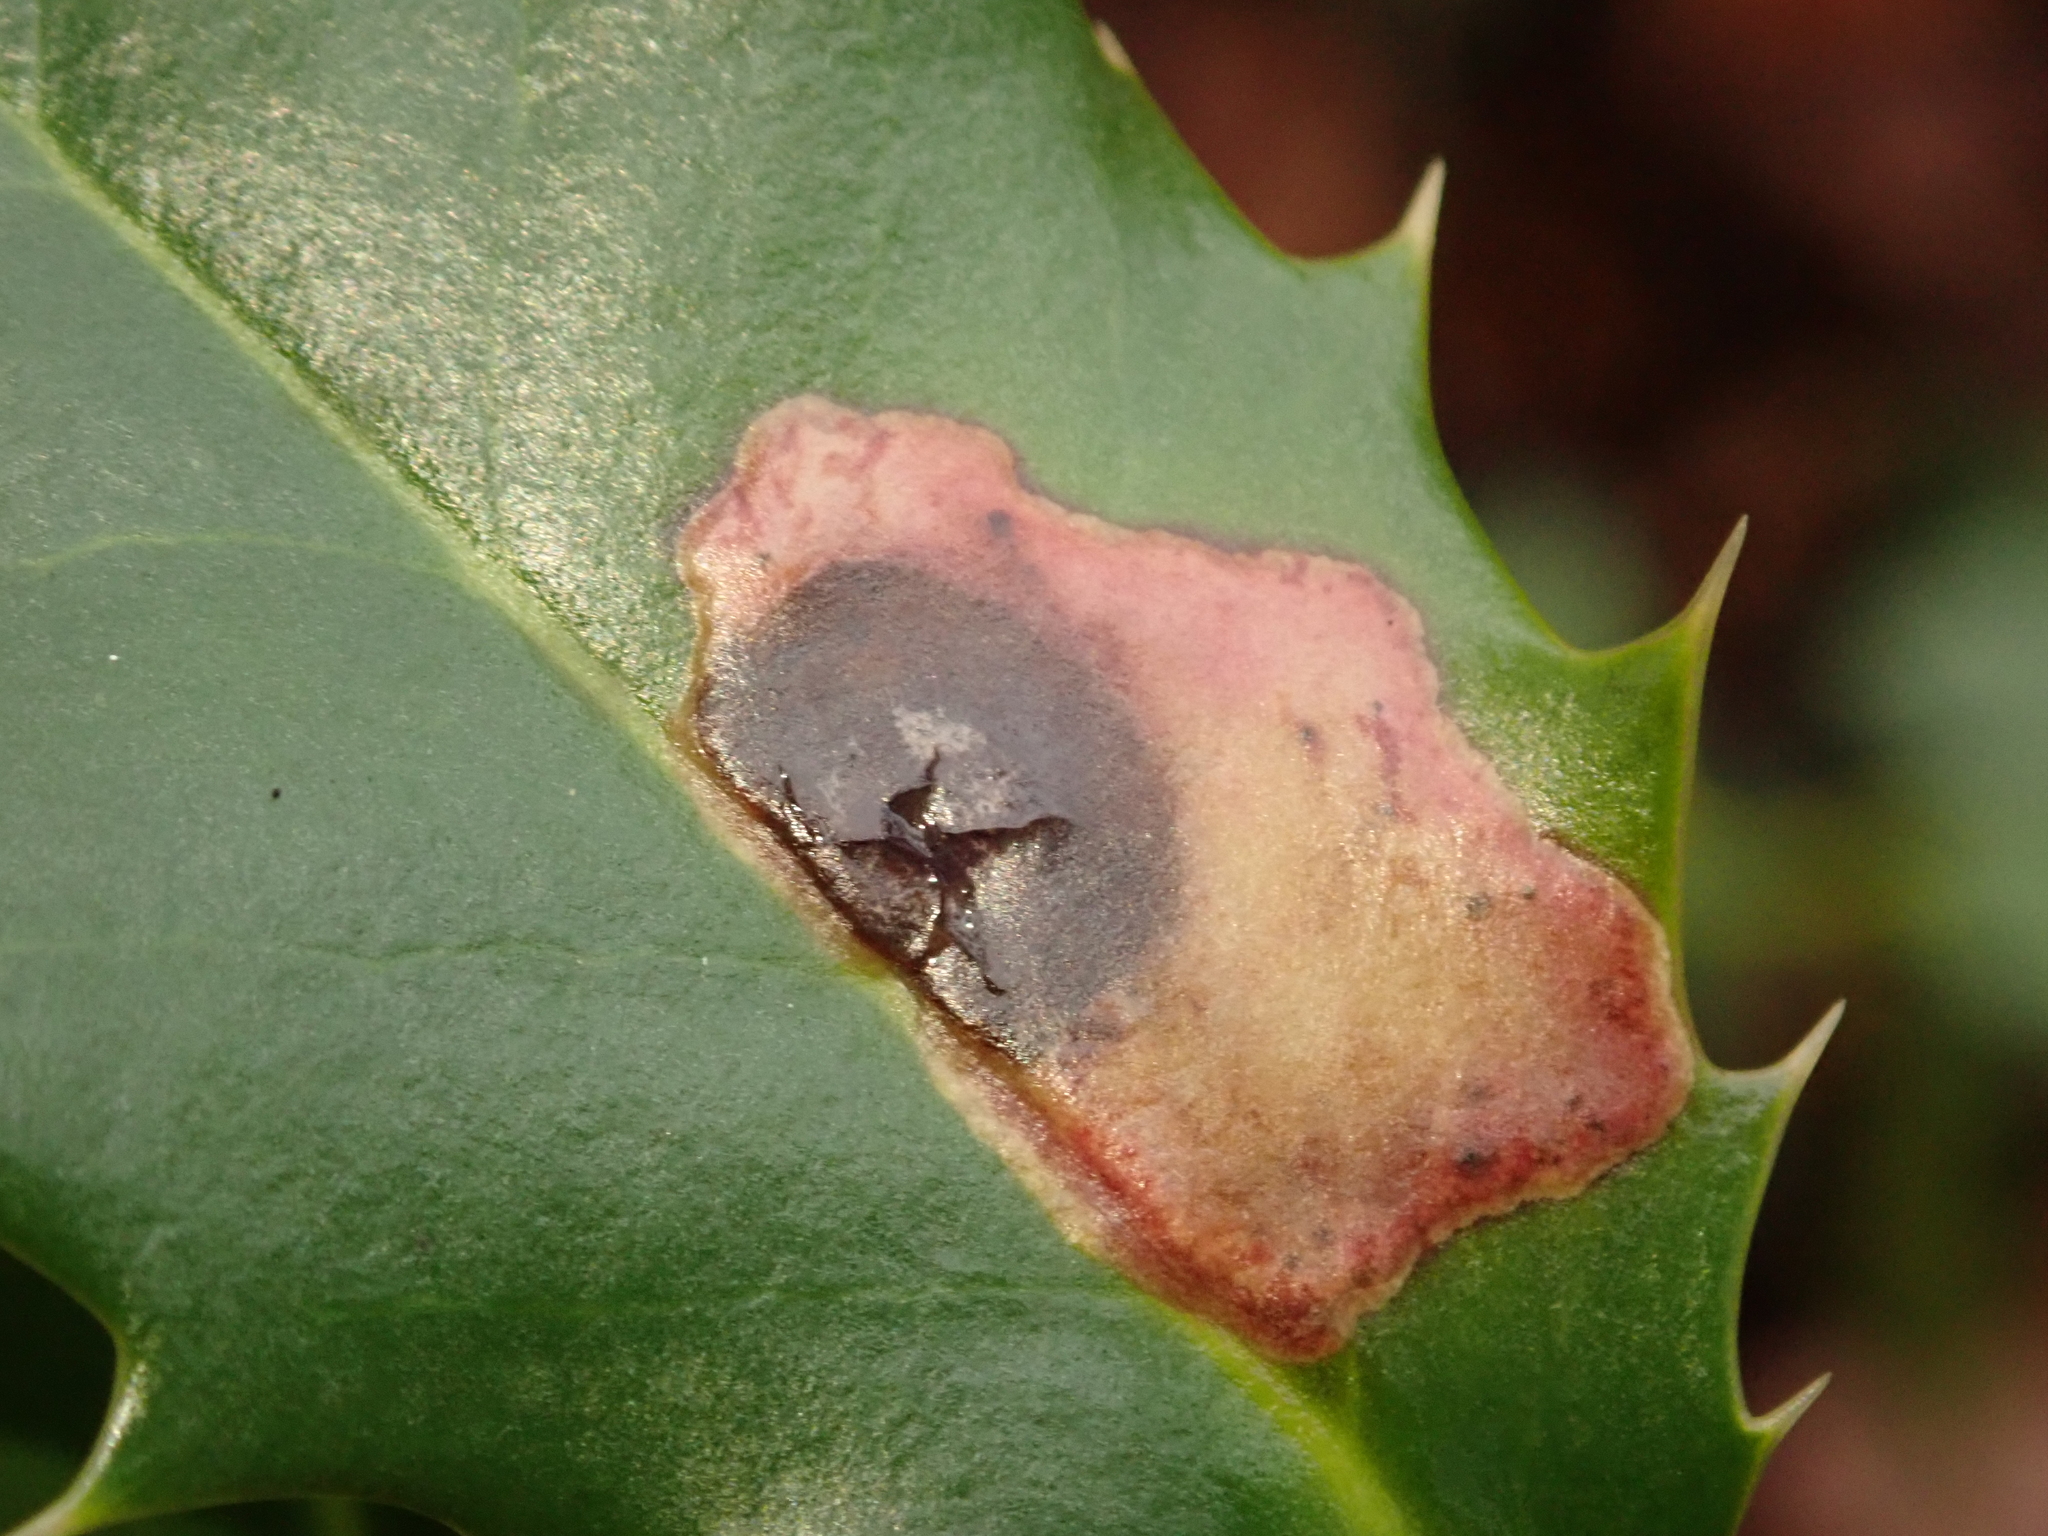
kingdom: Animalia
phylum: Arthropoda
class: Insecta
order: Diptera
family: Agromyzidae
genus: Phytomyza
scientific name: Phytomyza ilicis
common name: Holly leafminer
